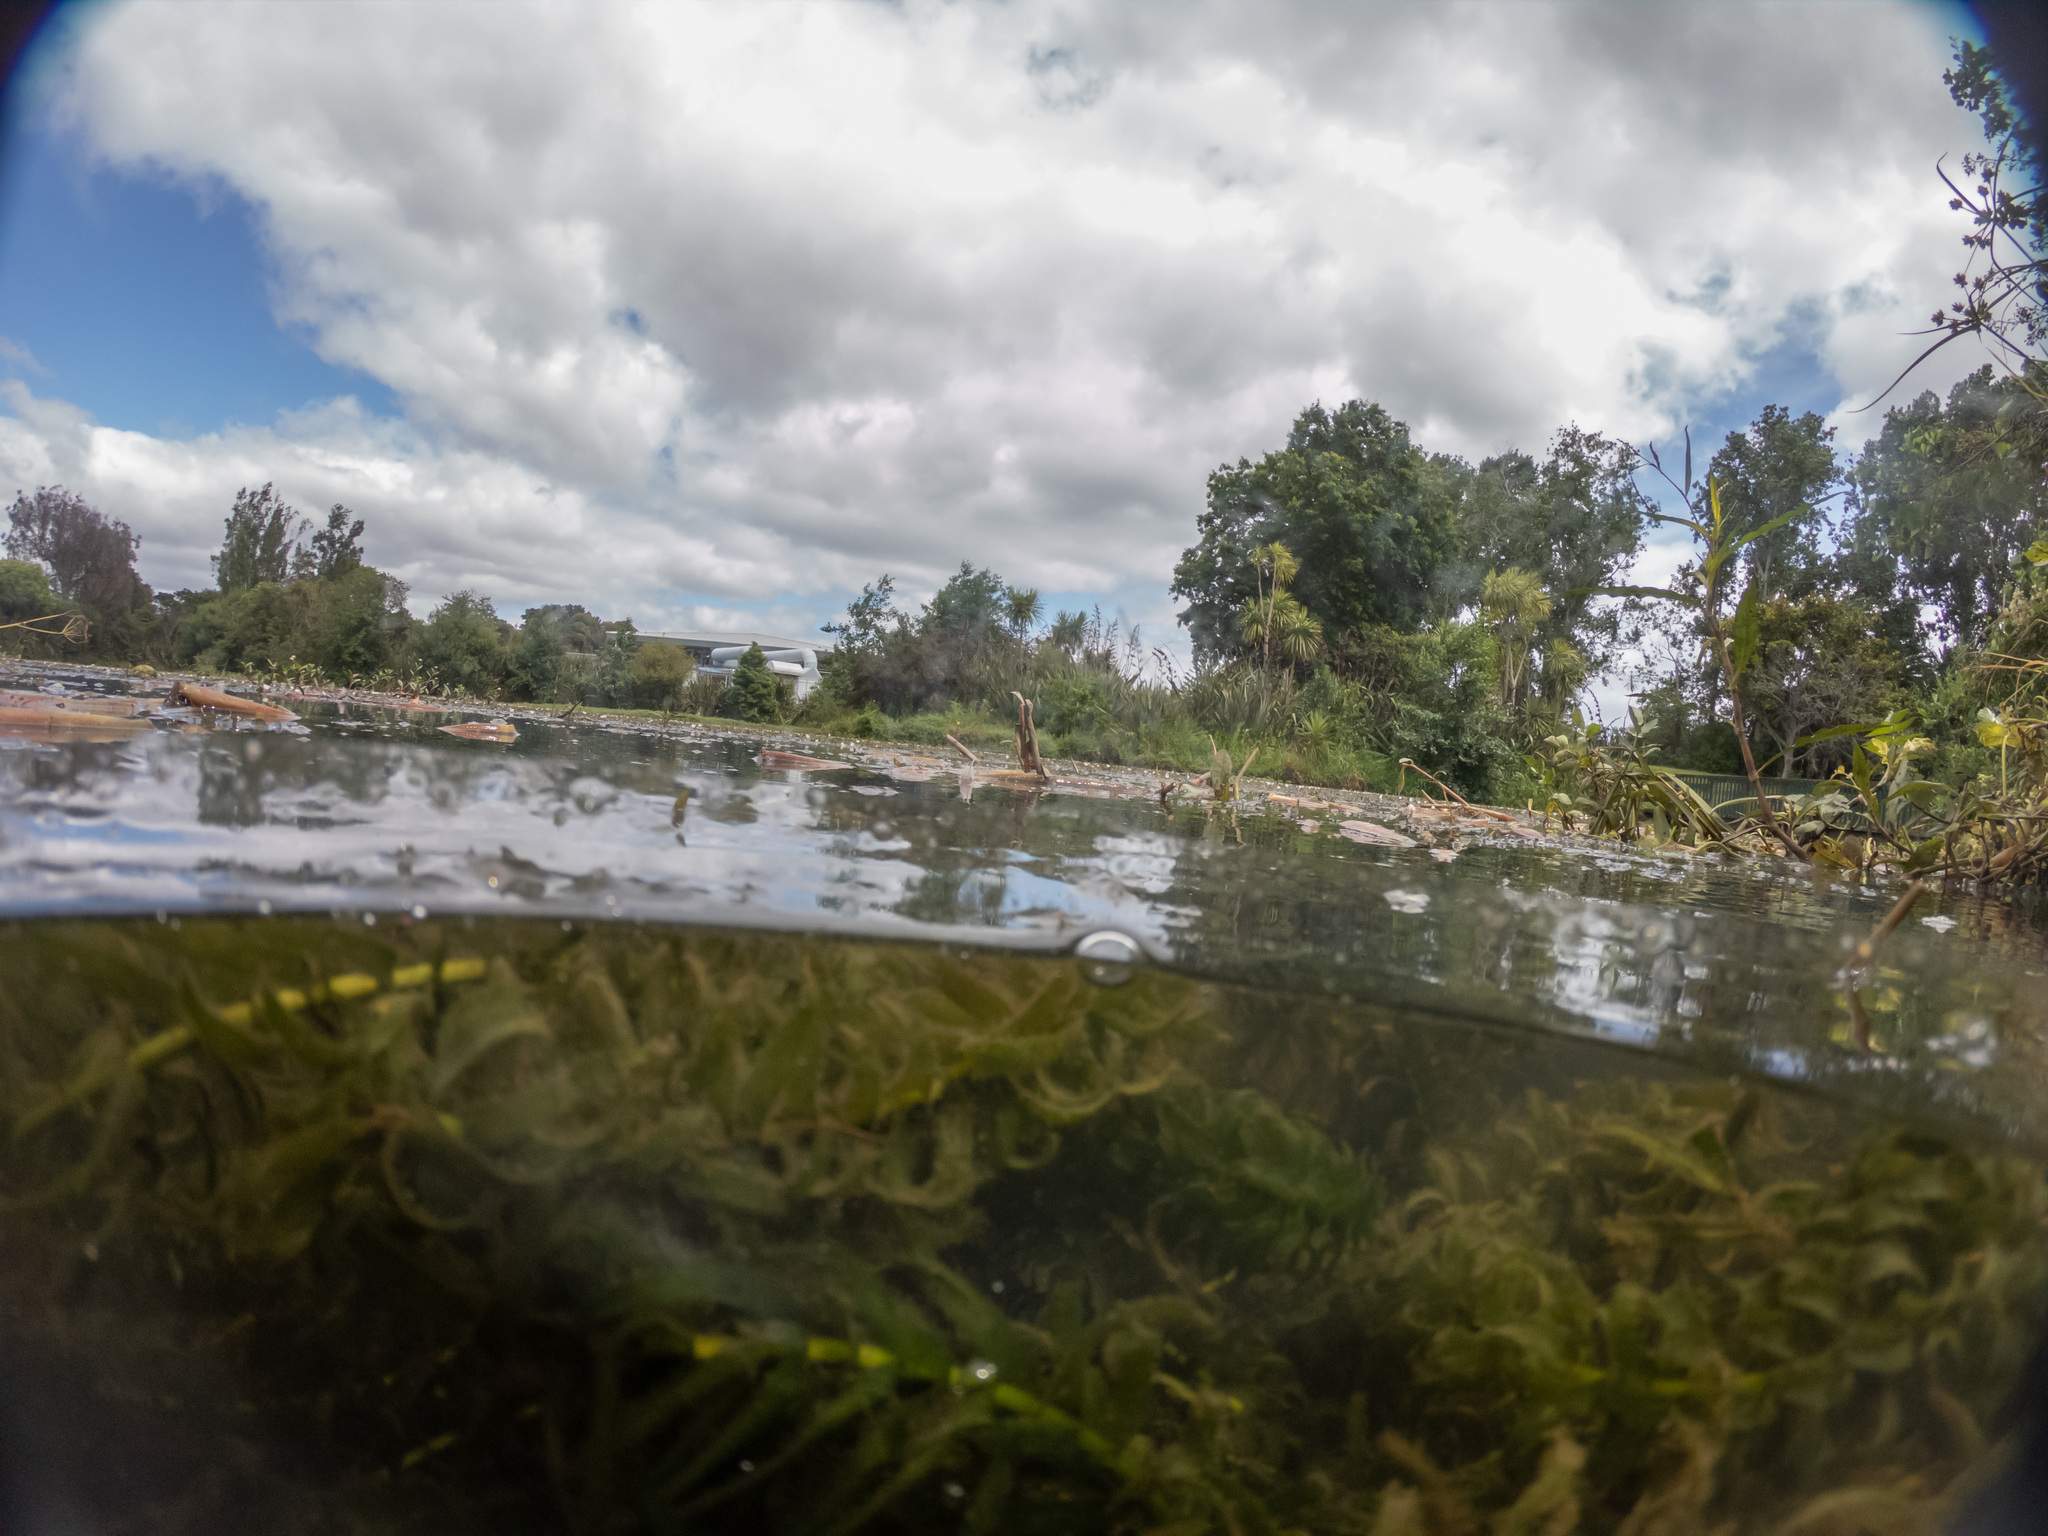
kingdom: Plantae
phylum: Tracheophyta
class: Liliopsida
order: Alismatales
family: Hydrocharitaceae
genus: Elodea
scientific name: Elodea densa
